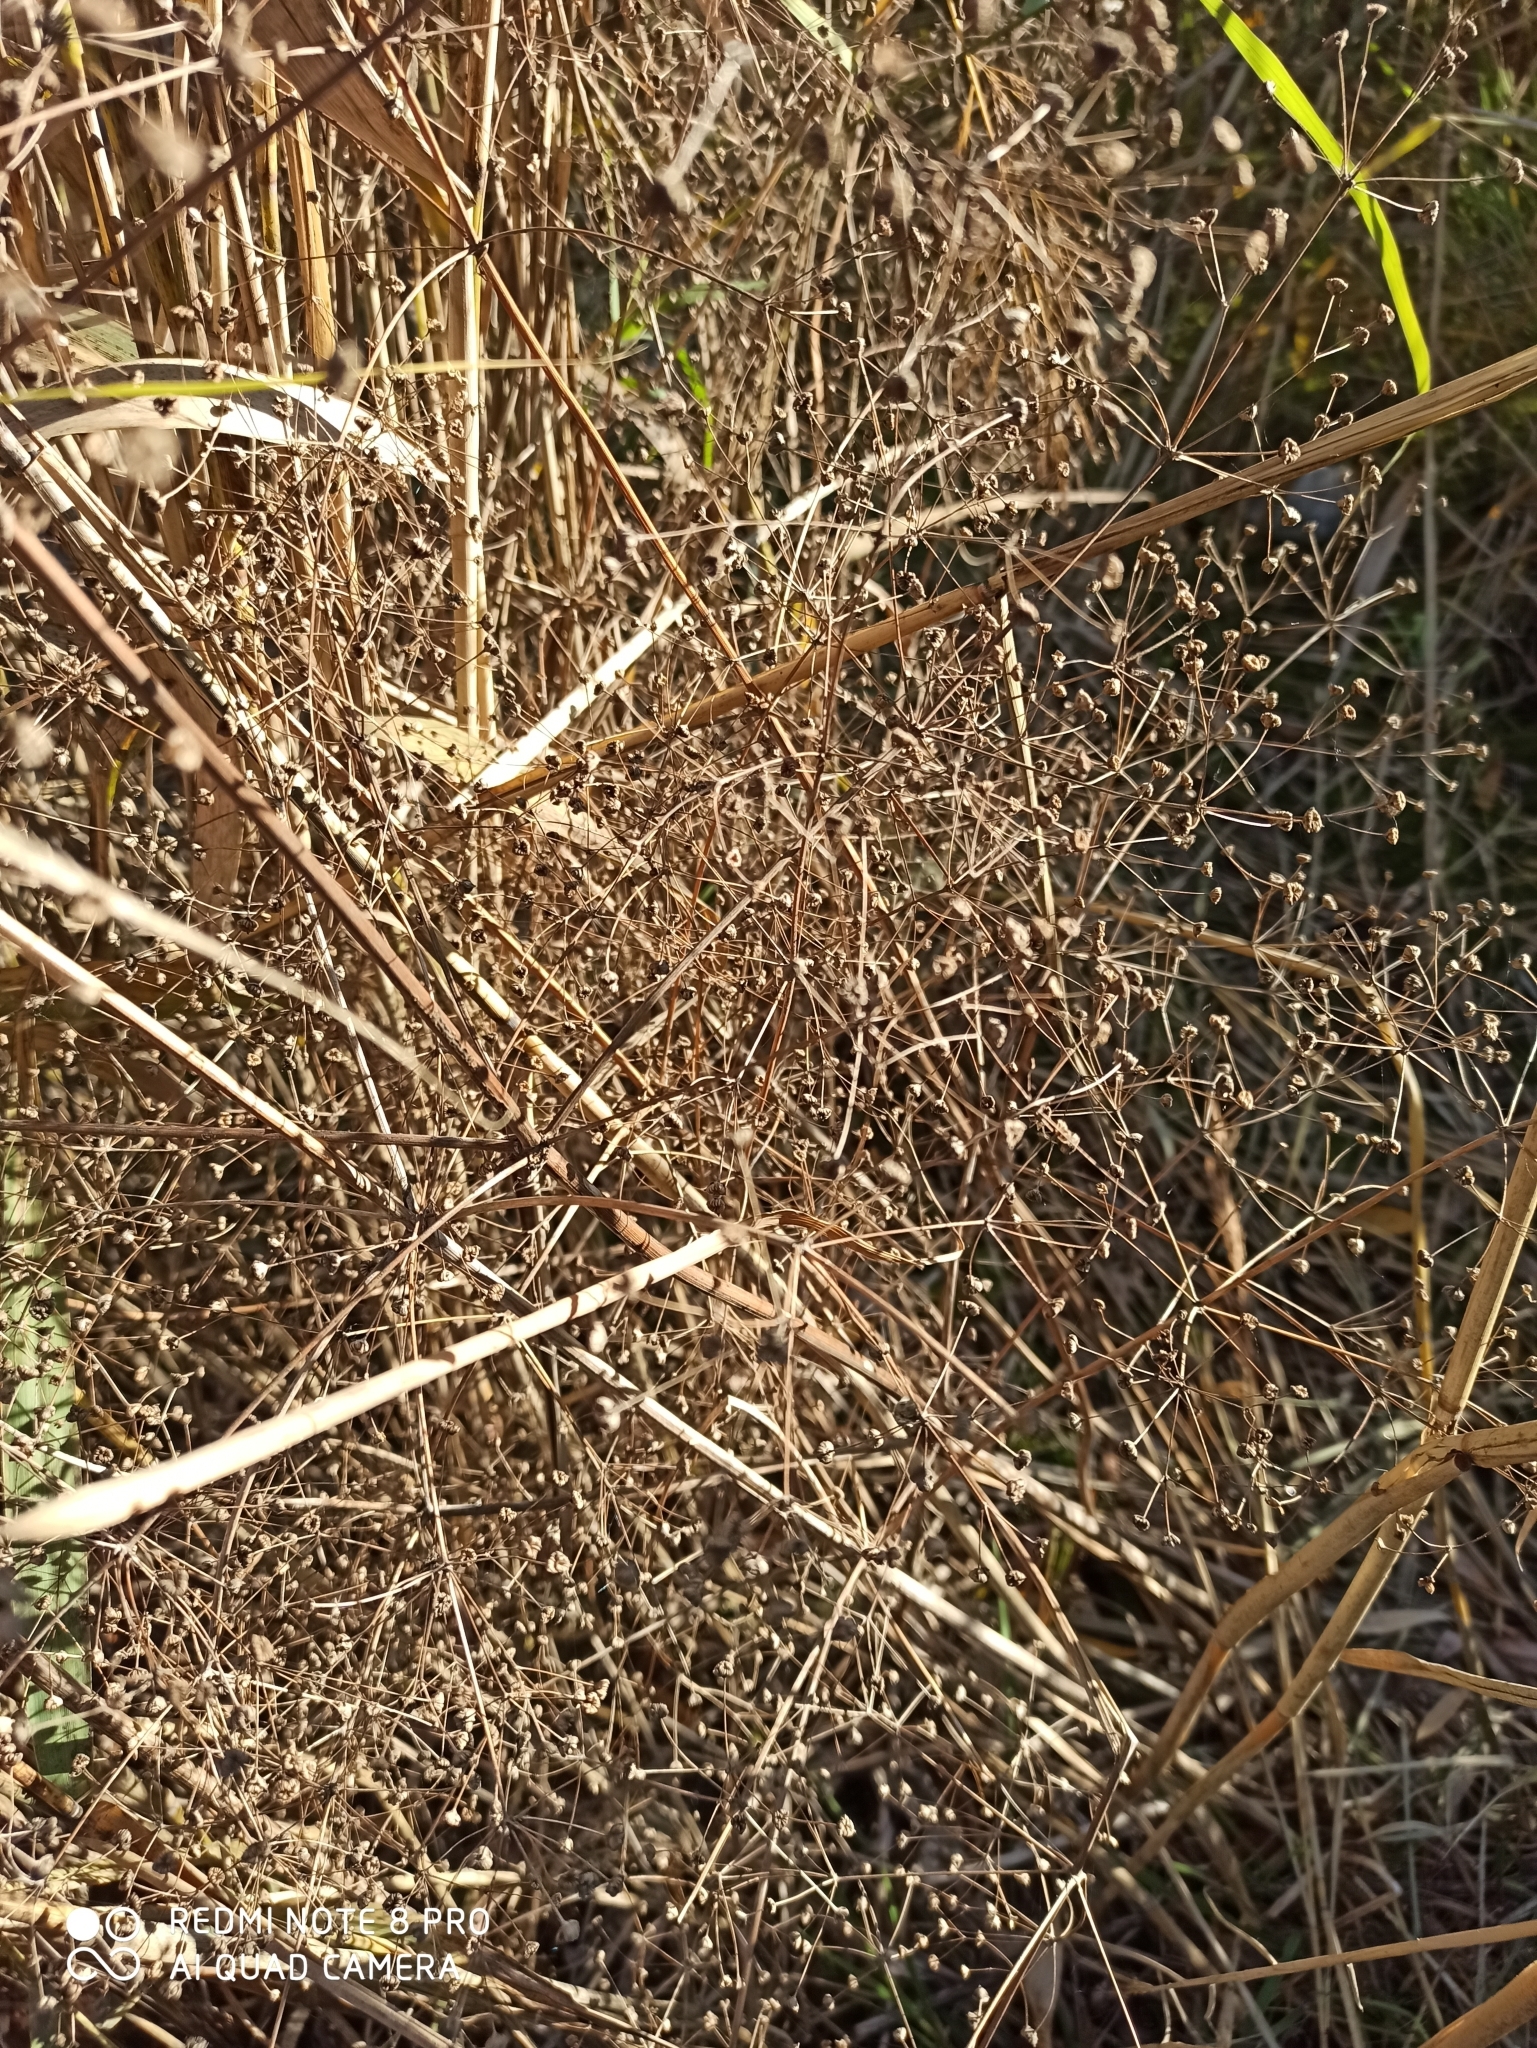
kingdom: Plantae
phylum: Tracheophyta
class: Liliopsida
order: Alismatales
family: Alismataceae
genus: Alisma
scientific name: Alisma plantago-aquatica
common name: Water-plantain
